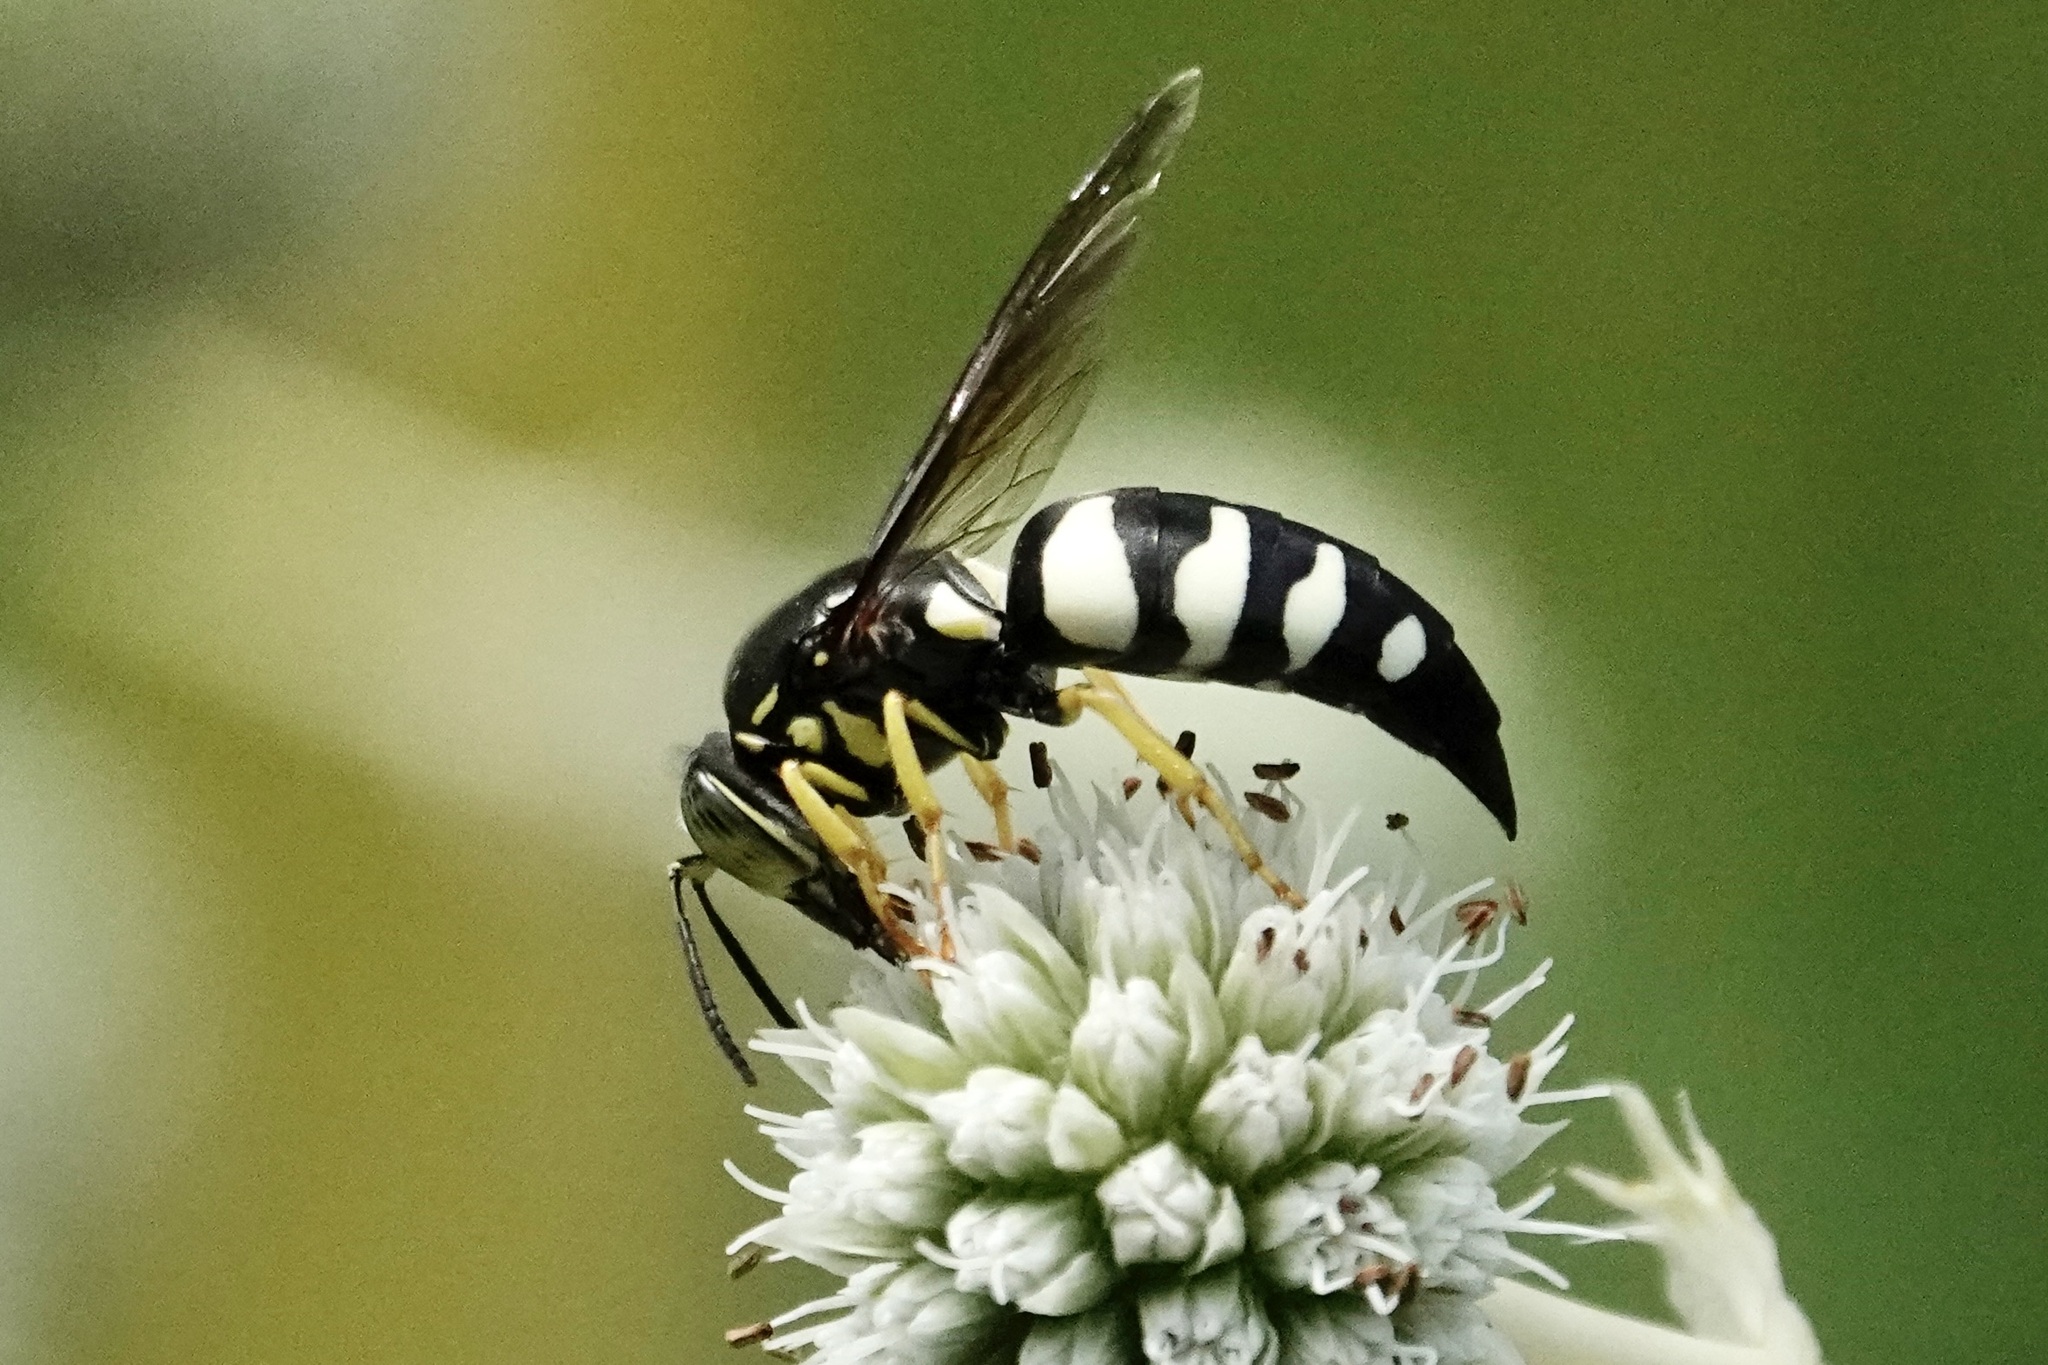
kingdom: Animalia
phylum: Arthropoda
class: Insecta
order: Hymenoptera
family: Crabronidae
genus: Bicyrtes
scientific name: Bicyrtes quadrifasciatus
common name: Four-banded stink bug hunter wasp
